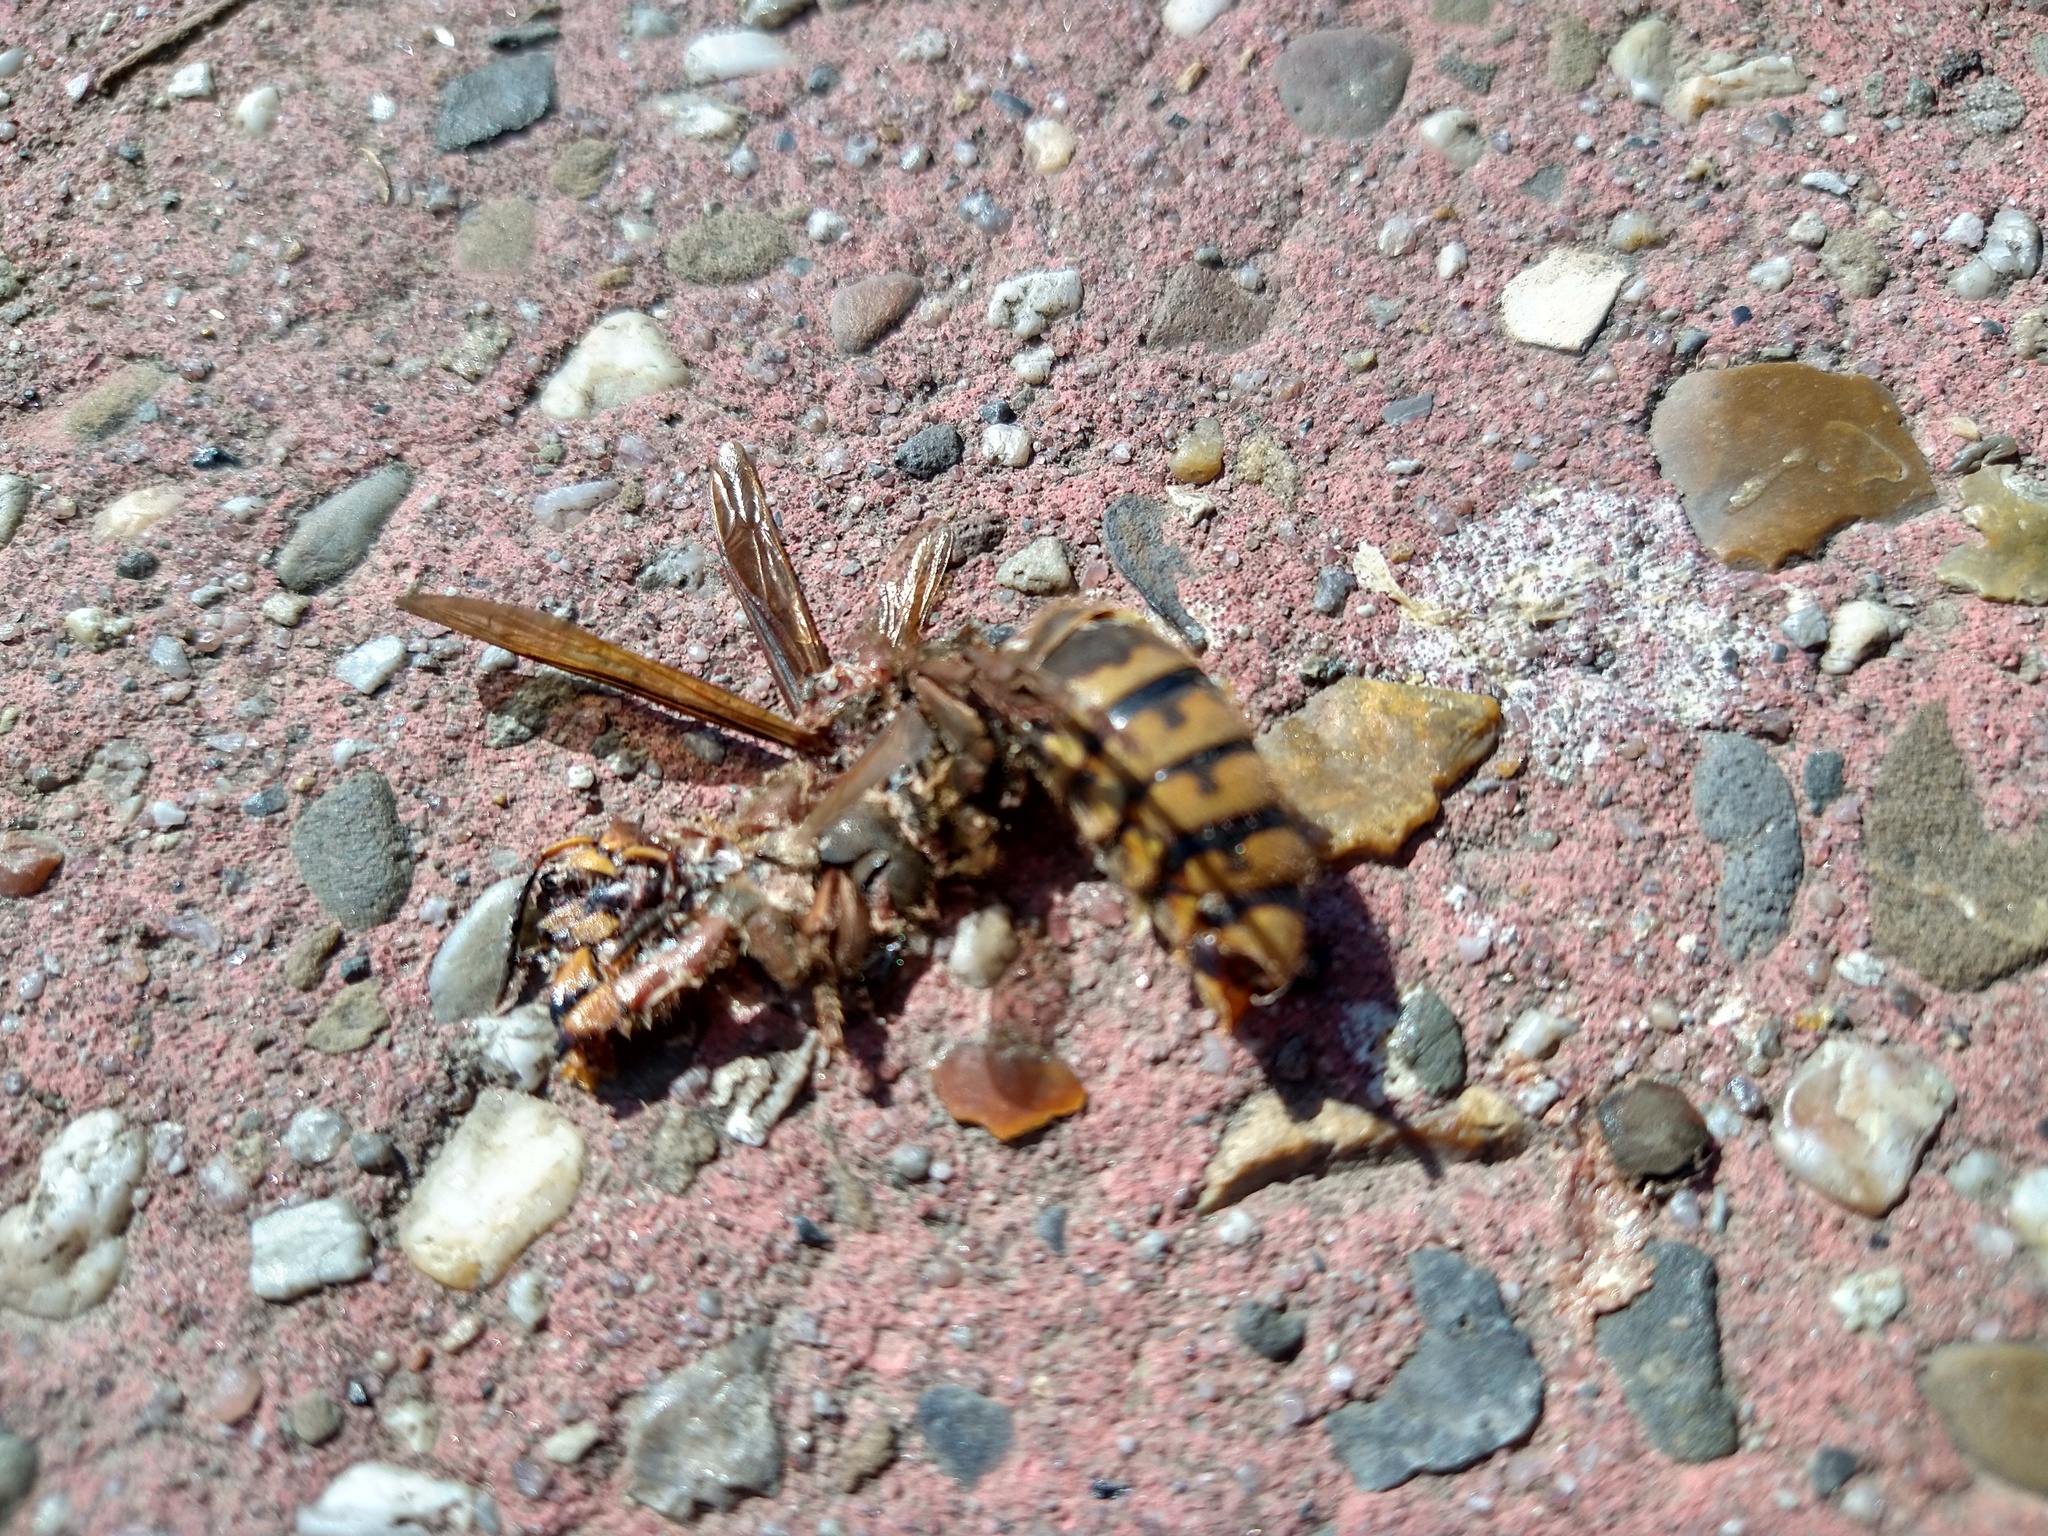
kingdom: Animalia
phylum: Arthropoda
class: Insecta
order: Hymenoptera
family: Vespidae
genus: Vespa
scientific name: Vespa crabro
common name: Hornet
